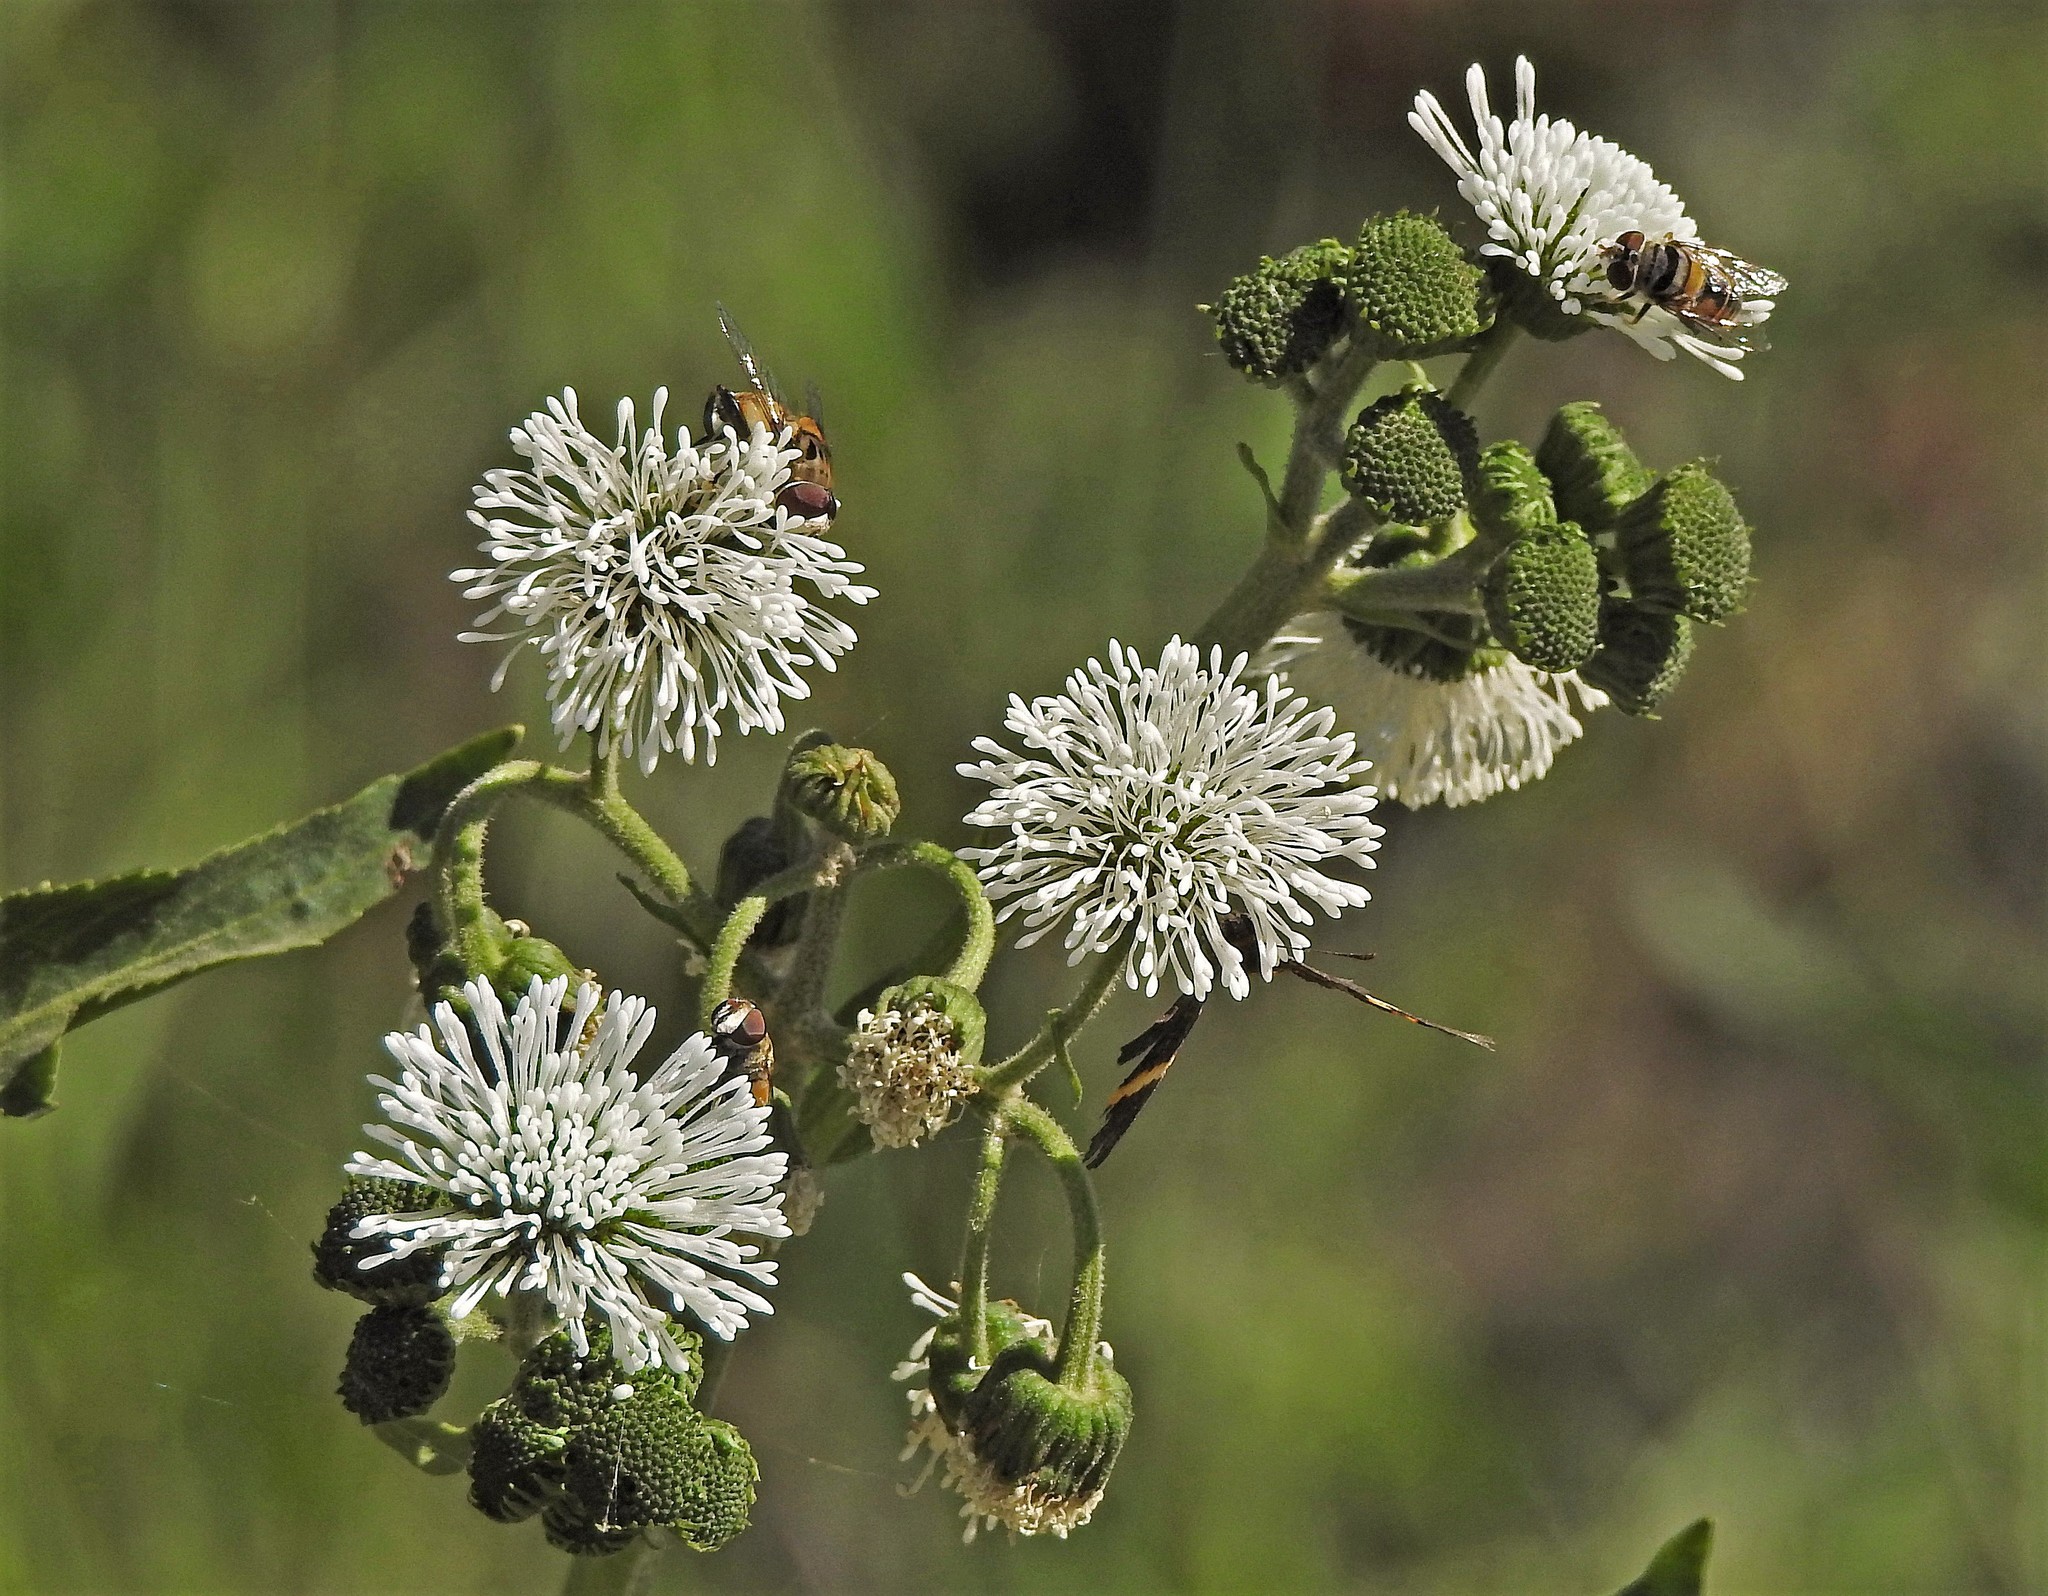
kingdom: Plantae
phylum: Tracheophyta
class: Magnoliopsida
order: Asterales
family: Asteraceae
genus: Gymnocoronis
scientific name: Gymnocoronis spilanthoides
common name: Senegal teaplant
